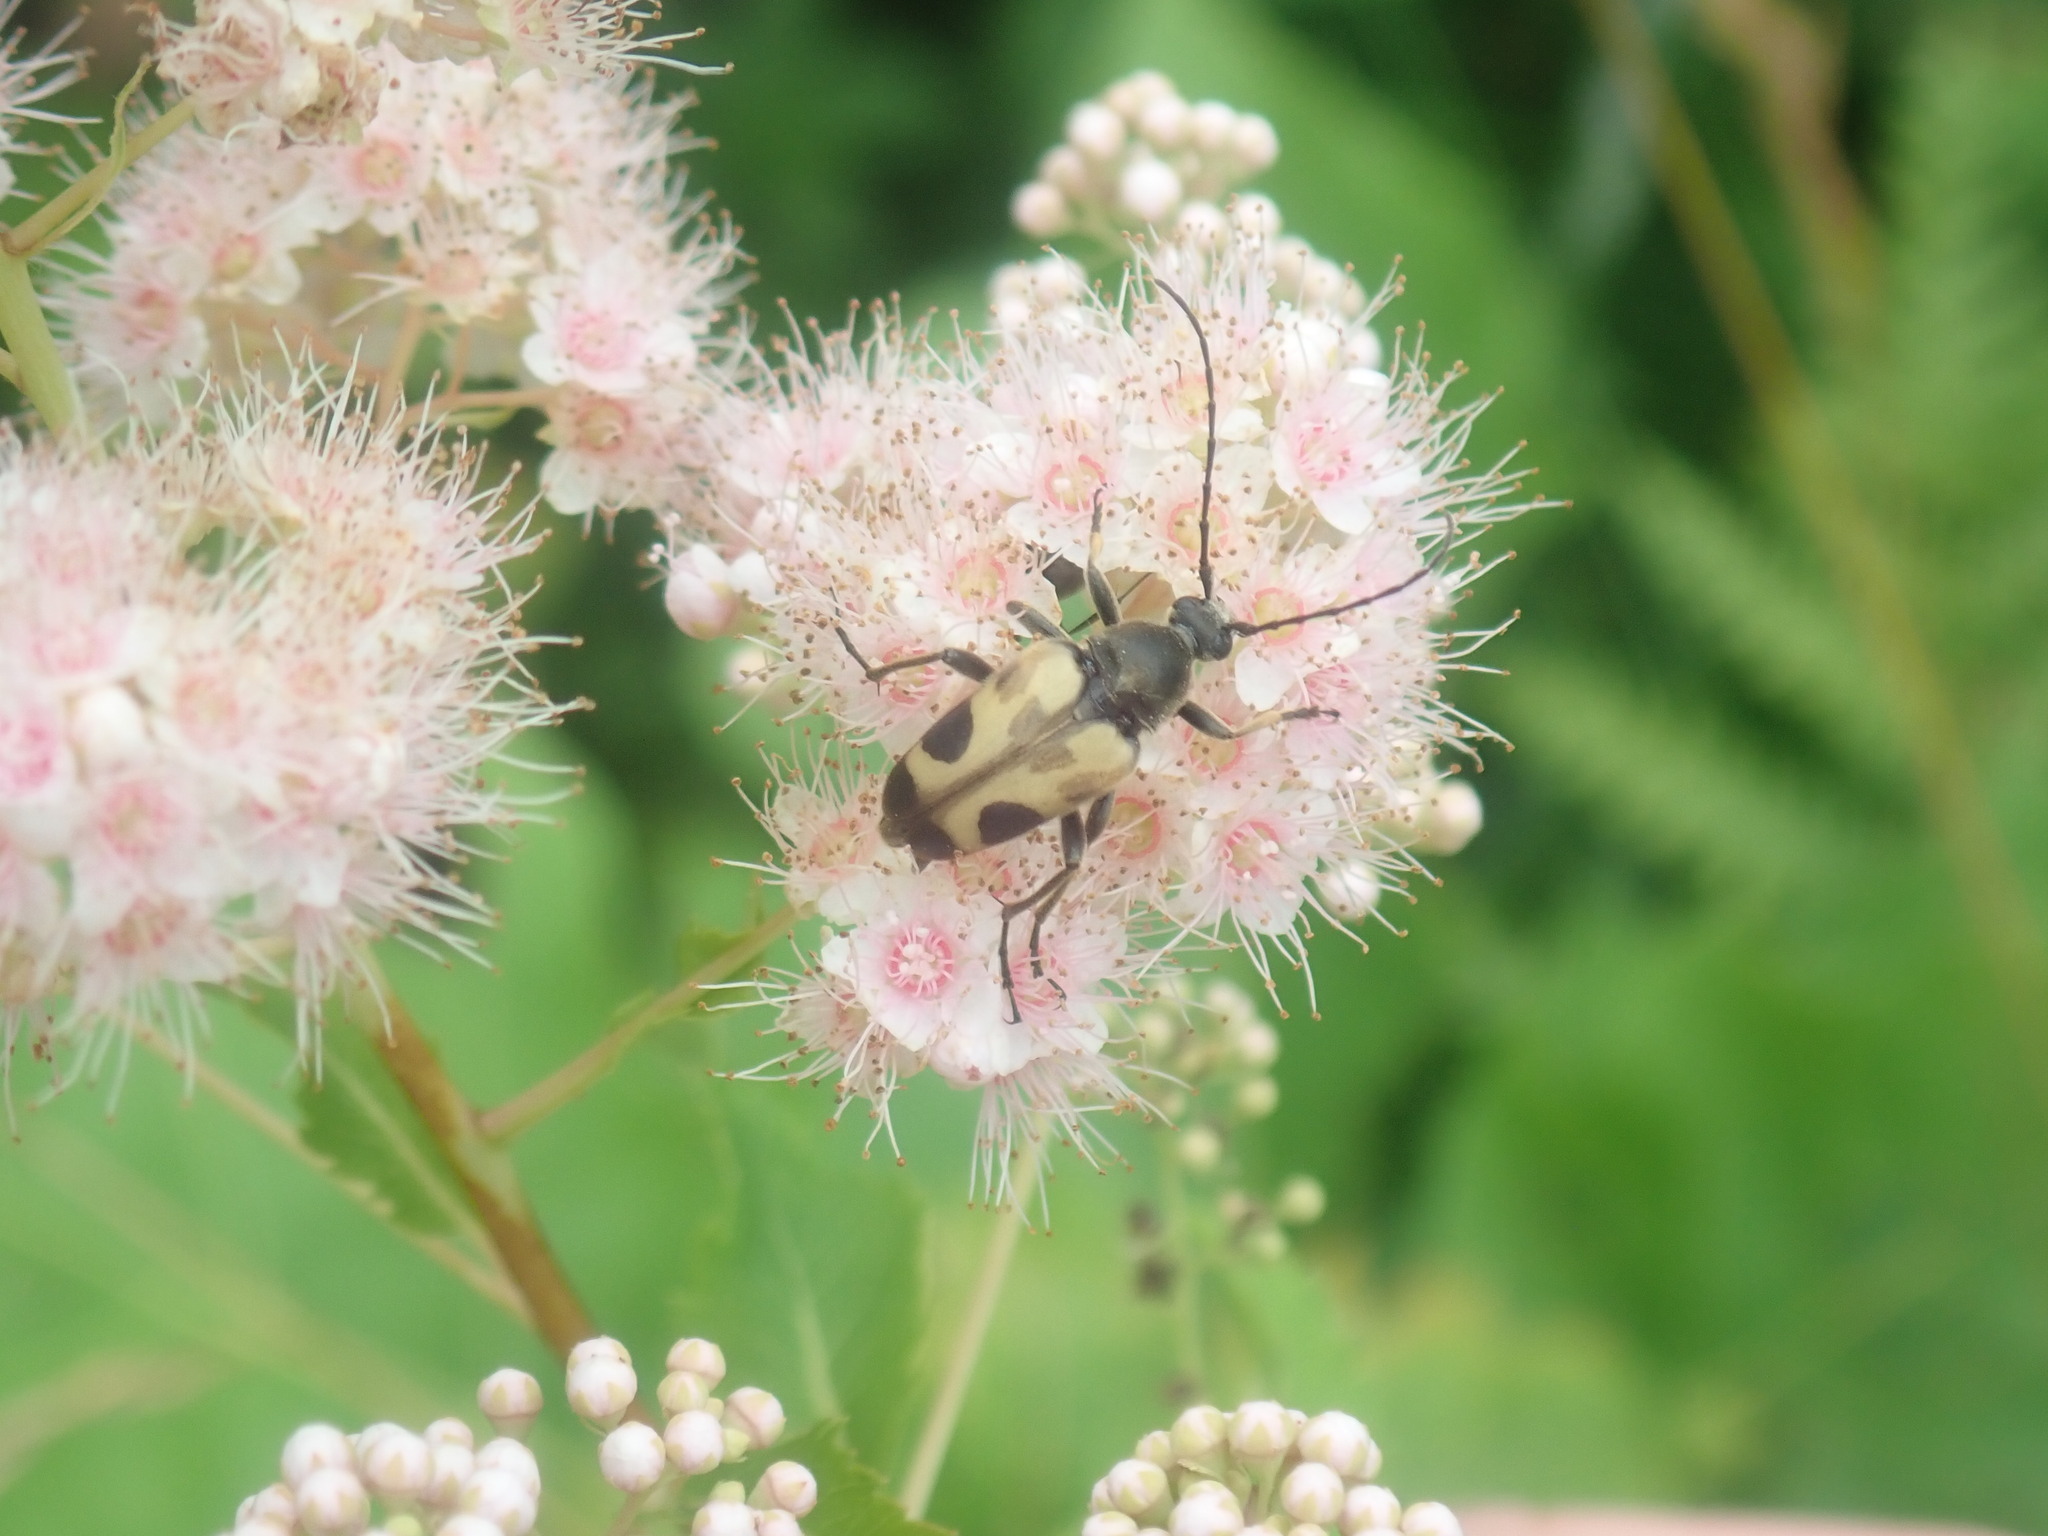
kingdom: Animalia
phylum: Arthropoda
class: Insecta
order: Coleoptera
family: Cerambycidae
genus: Judolia
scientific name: Judolia cordifera
